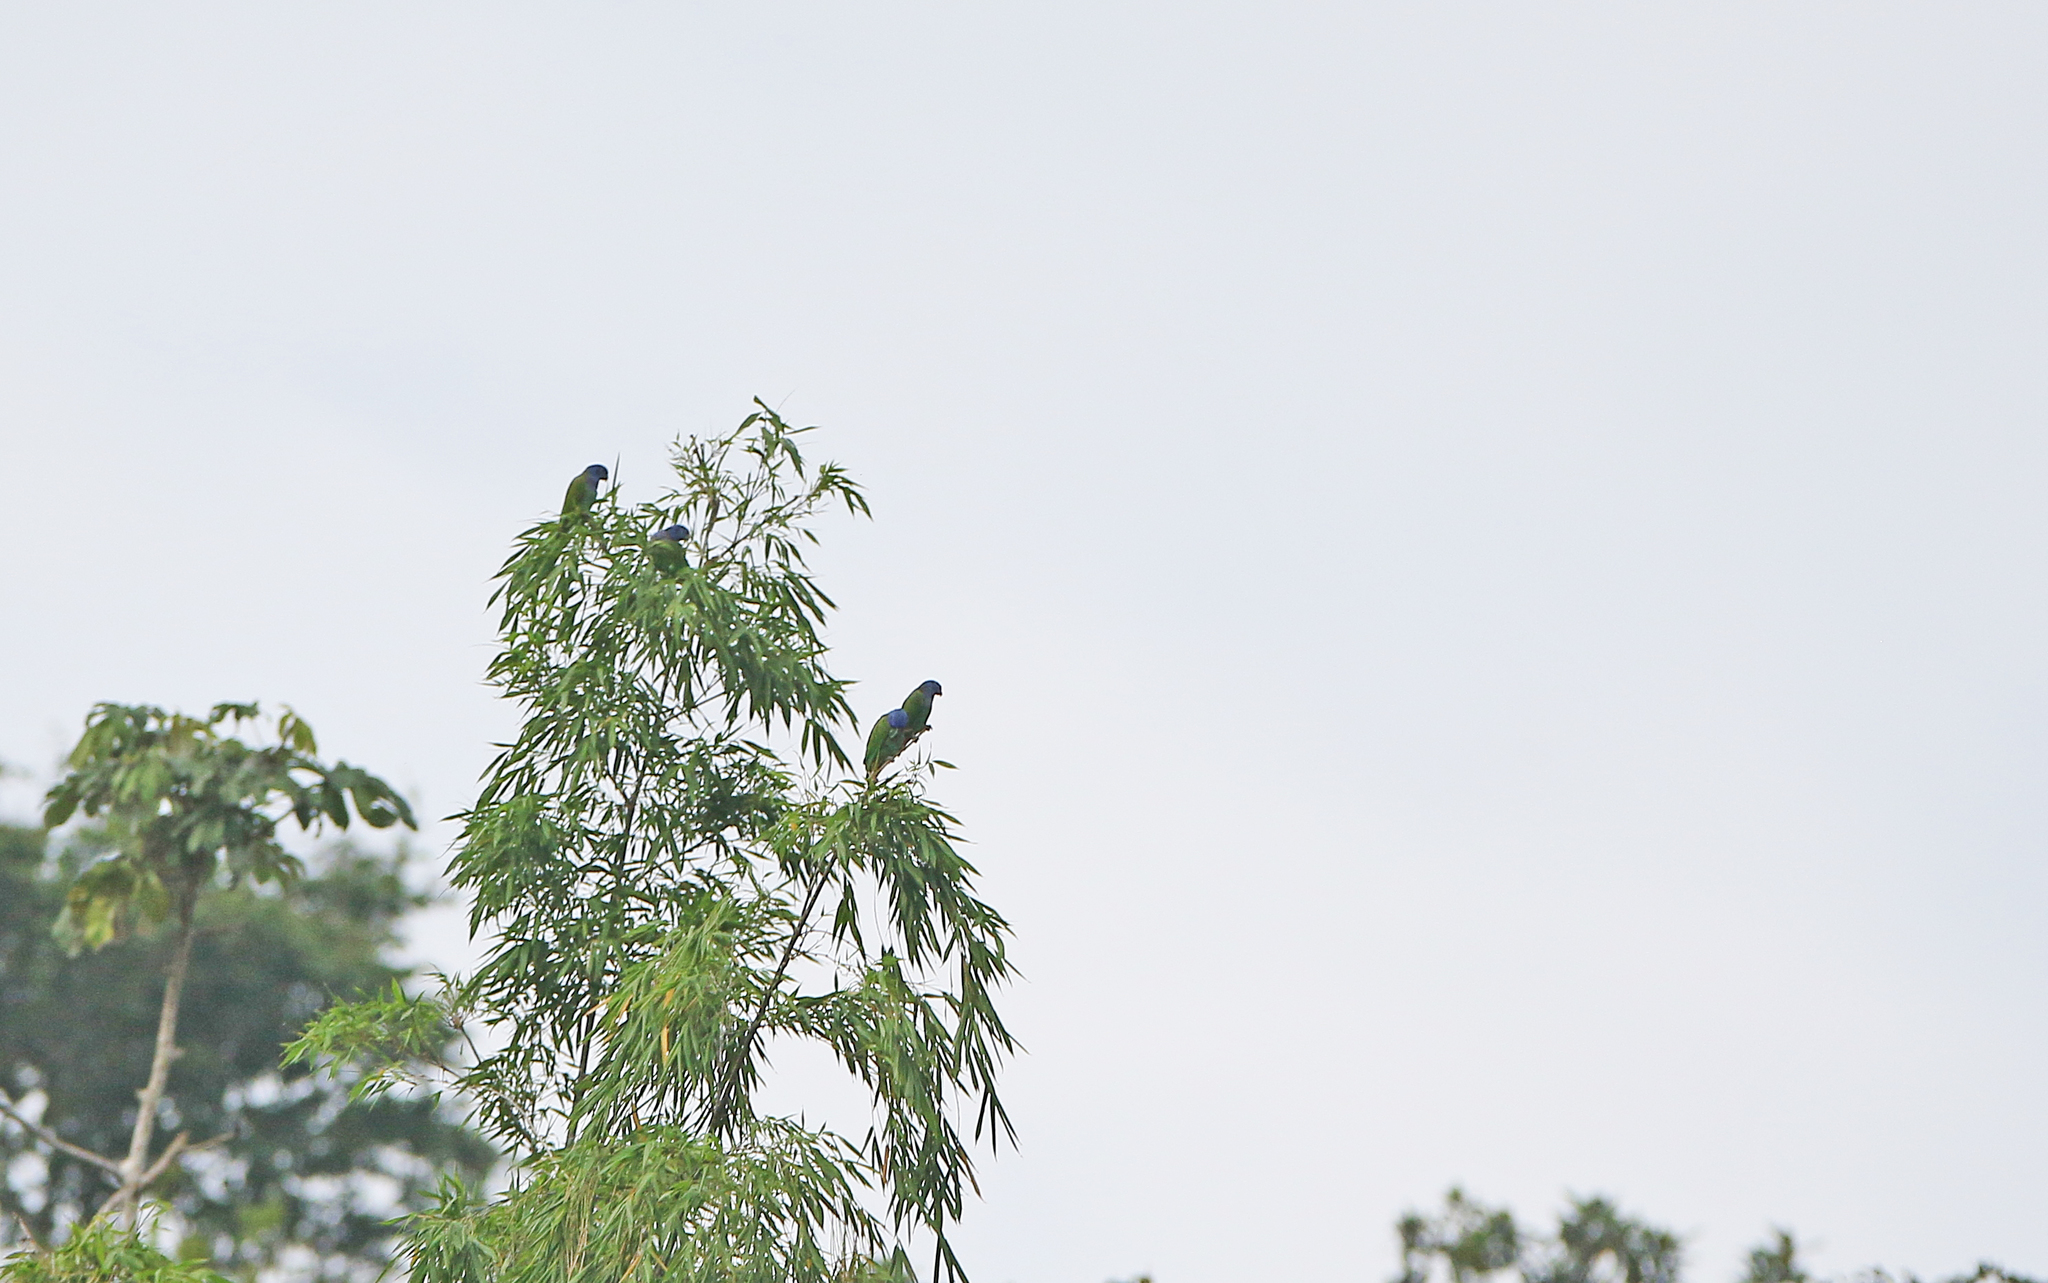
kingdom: Animalia
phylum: Chordata
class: Aves
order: Psittaciformes
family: Psittacidae
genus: Pionus
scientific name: Pionus menstruus
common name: Blue-headed parrot
